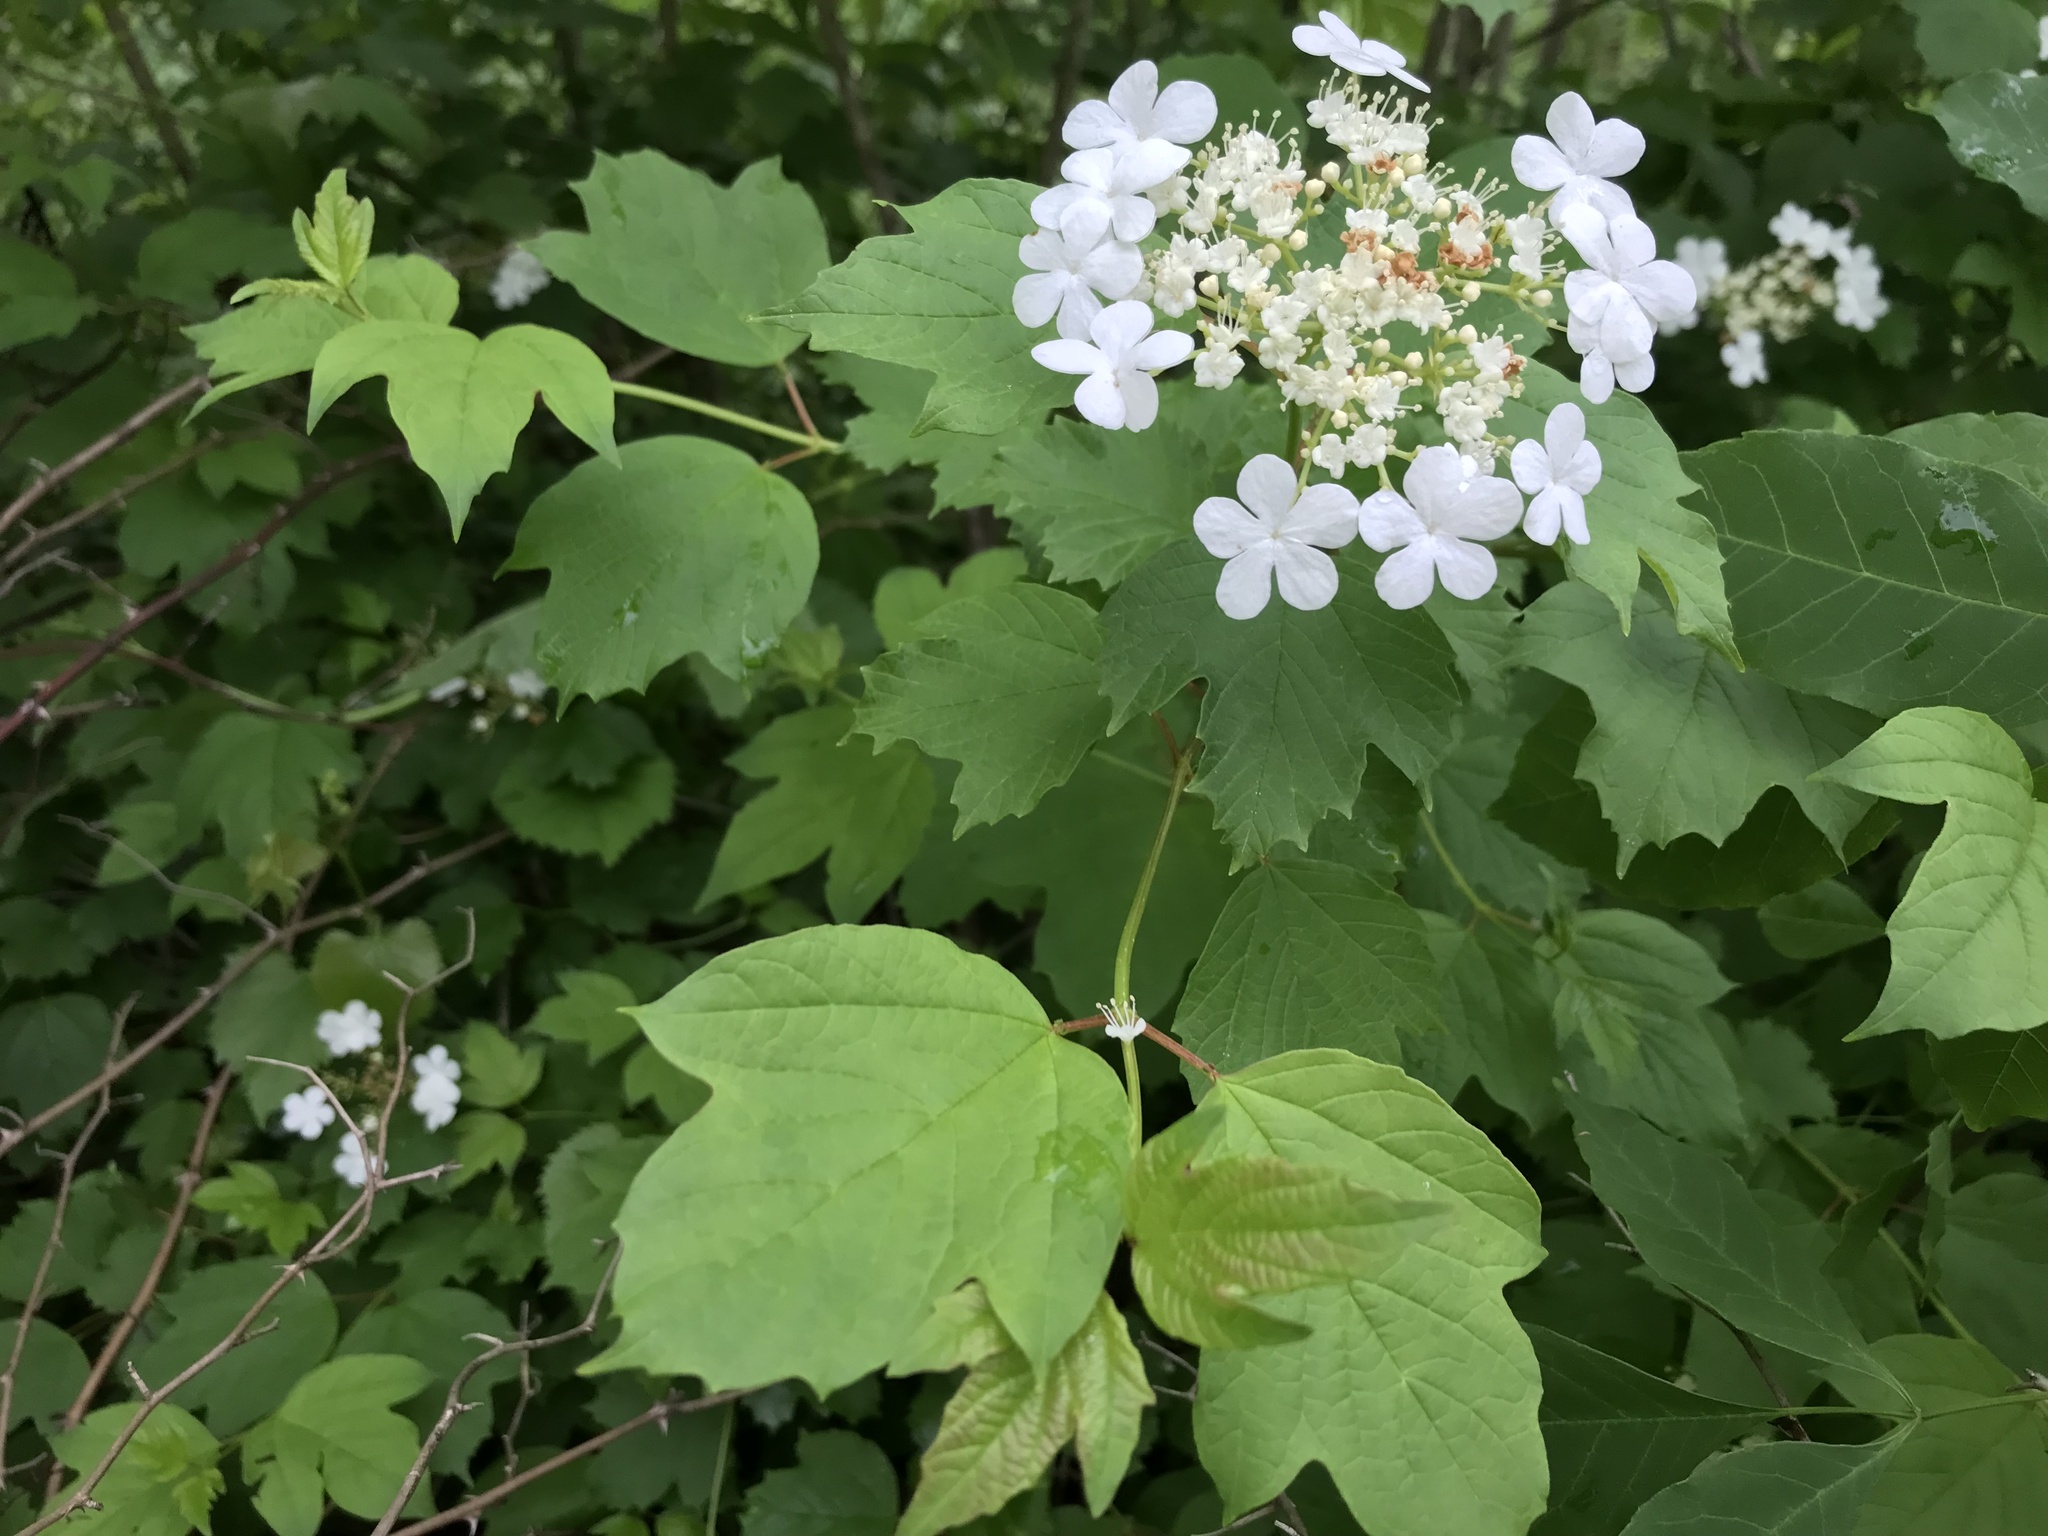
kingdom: Plantae
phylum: Tracheophyta
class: Magnoliopsida
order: Dipsacales
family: Viburnaceae
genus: Viburnum
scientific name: Viburnum acerifolium
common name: Dockmackie
